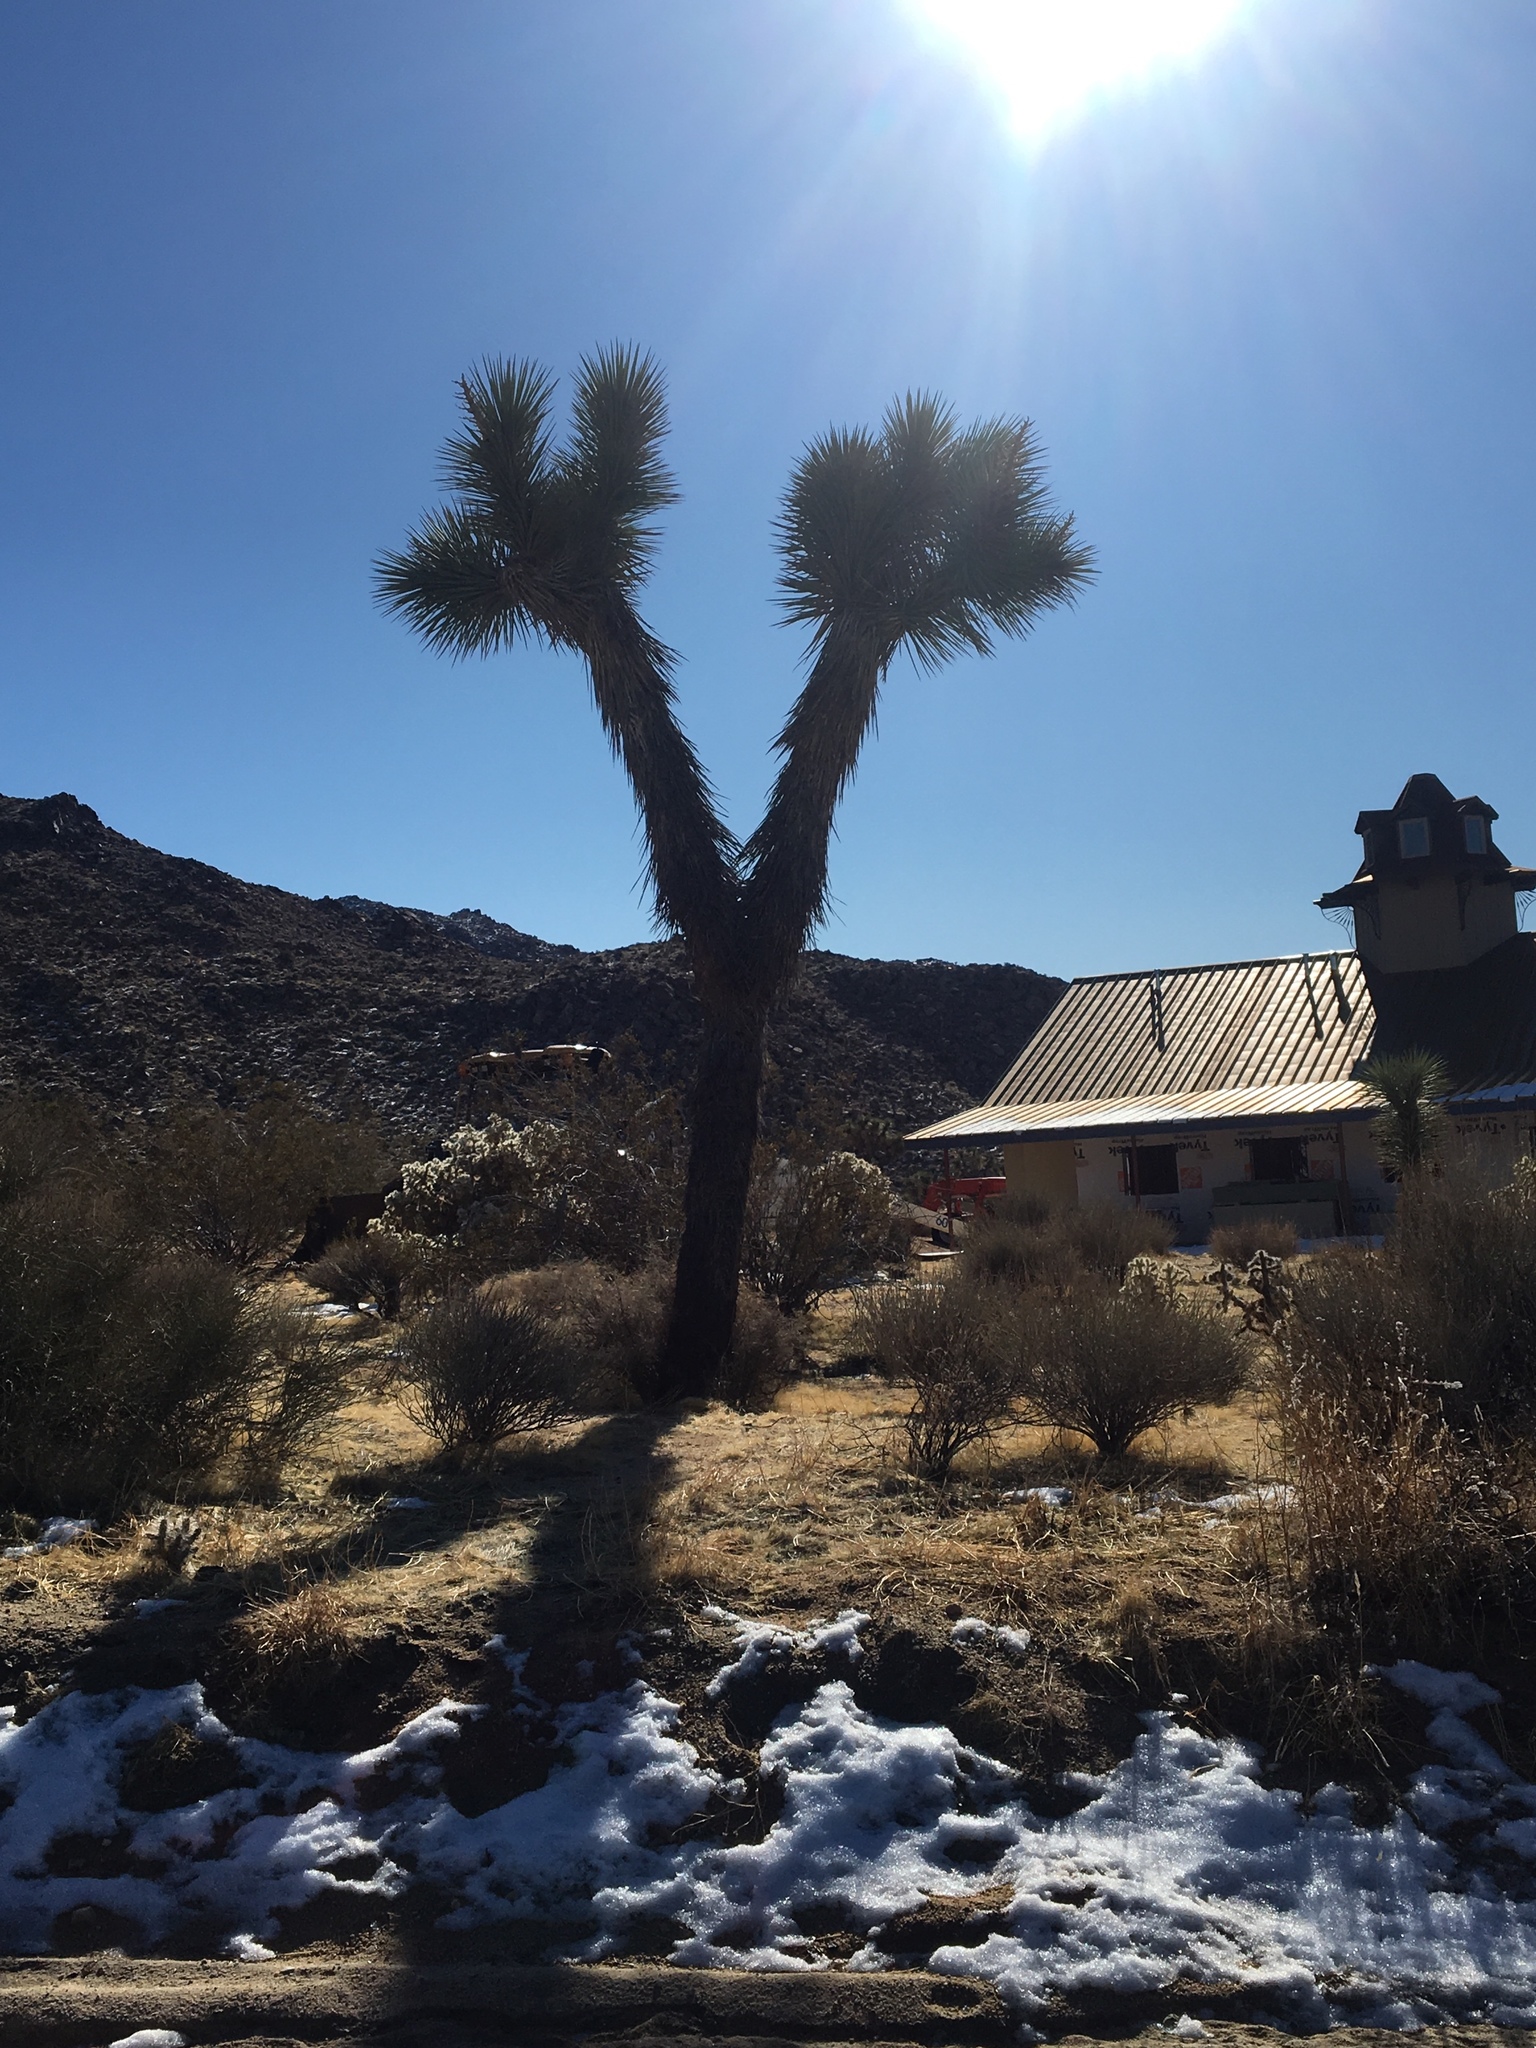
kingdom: Plantae
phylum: Tracheophyta
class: Liliopsida
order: Asparagales
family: Asparagaceae
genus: Yucca
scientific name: Yucca brevifolia
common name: Joshua tree
